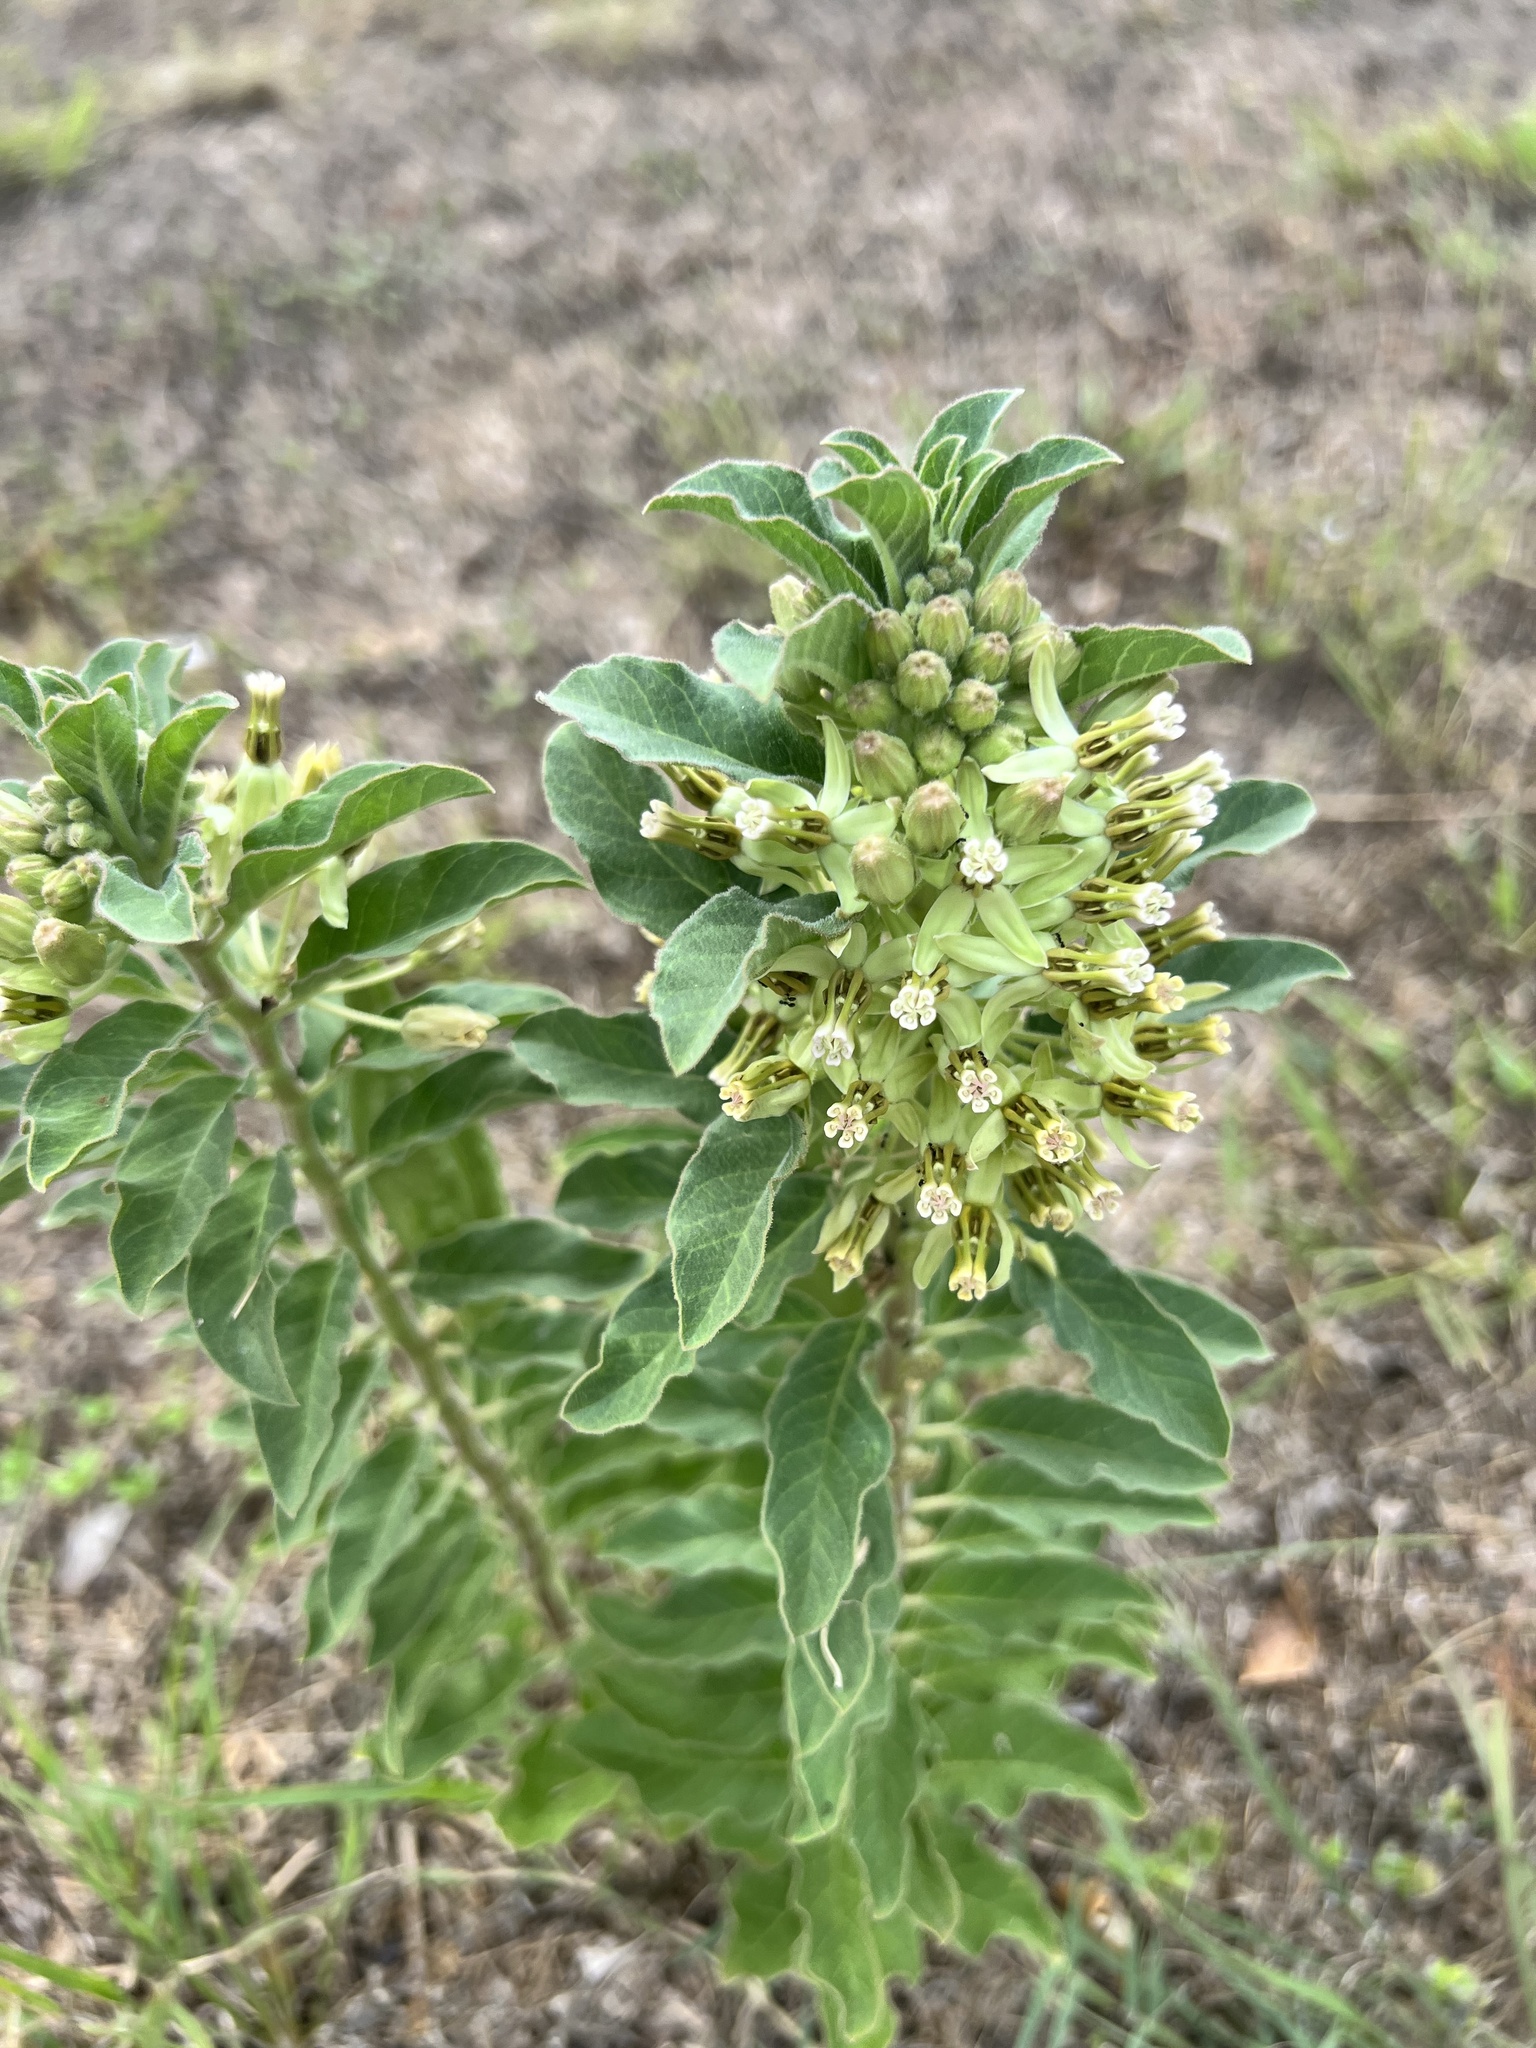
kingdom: Plantae
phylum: Tracheophyta
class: Magnoliopsida
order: Gentianales
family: Apocynaceae
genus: Asclepias
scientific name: Asclepias oenotheroides
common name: Zizotes milkweed
